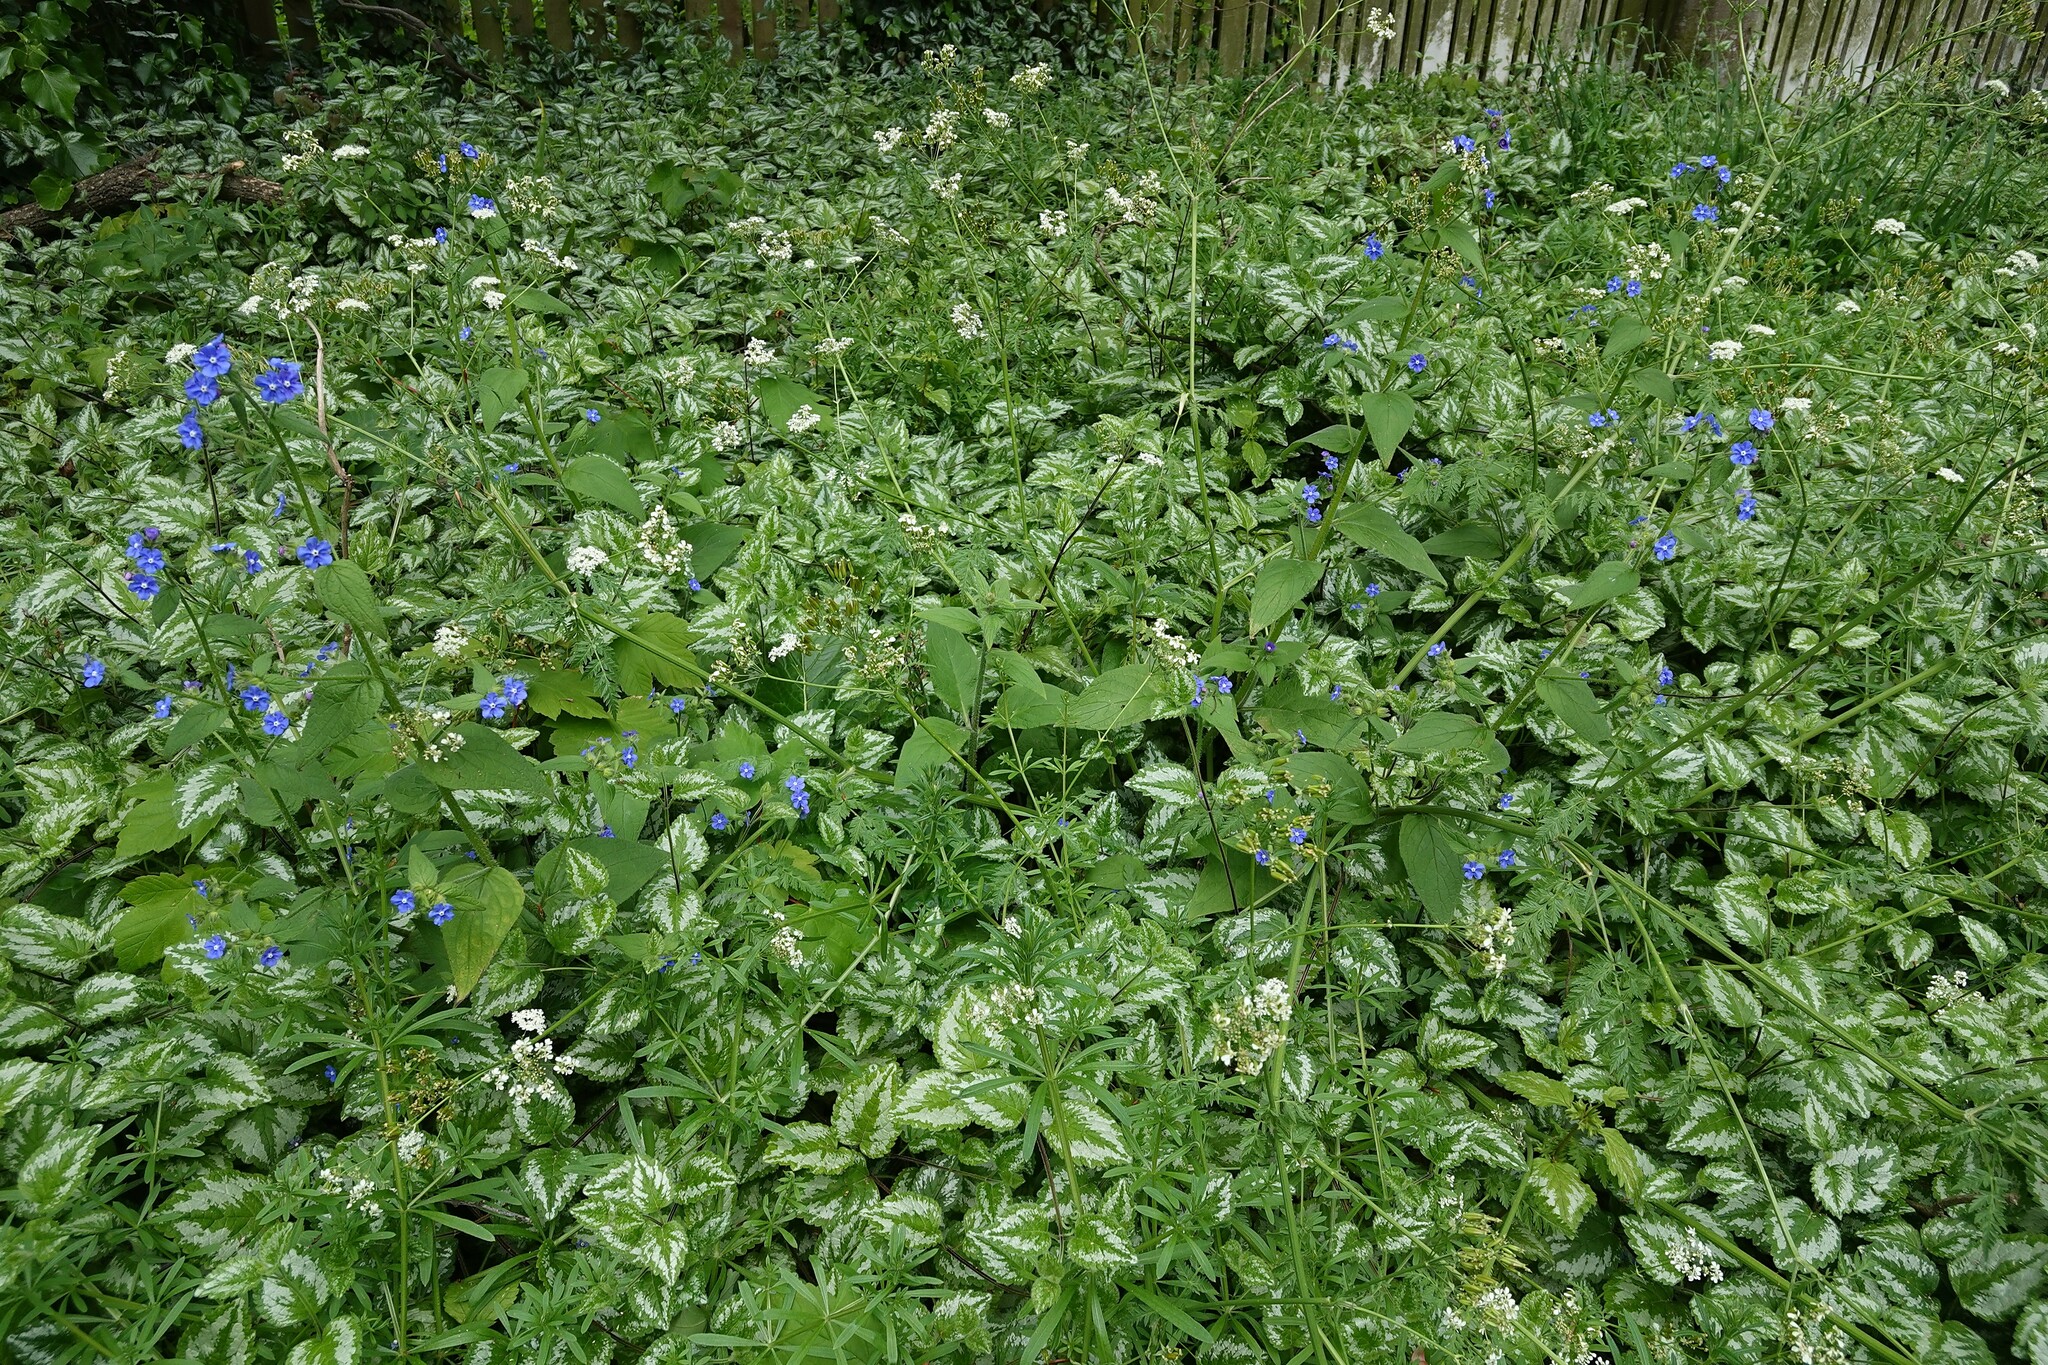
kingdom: Plantae
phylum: Tracheophyta
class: Magnoliopsida
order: Boraginales
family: Boraginaceae
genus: Pentaglottis
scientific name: Pentaglottis sempervirens
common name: Green alkanet
